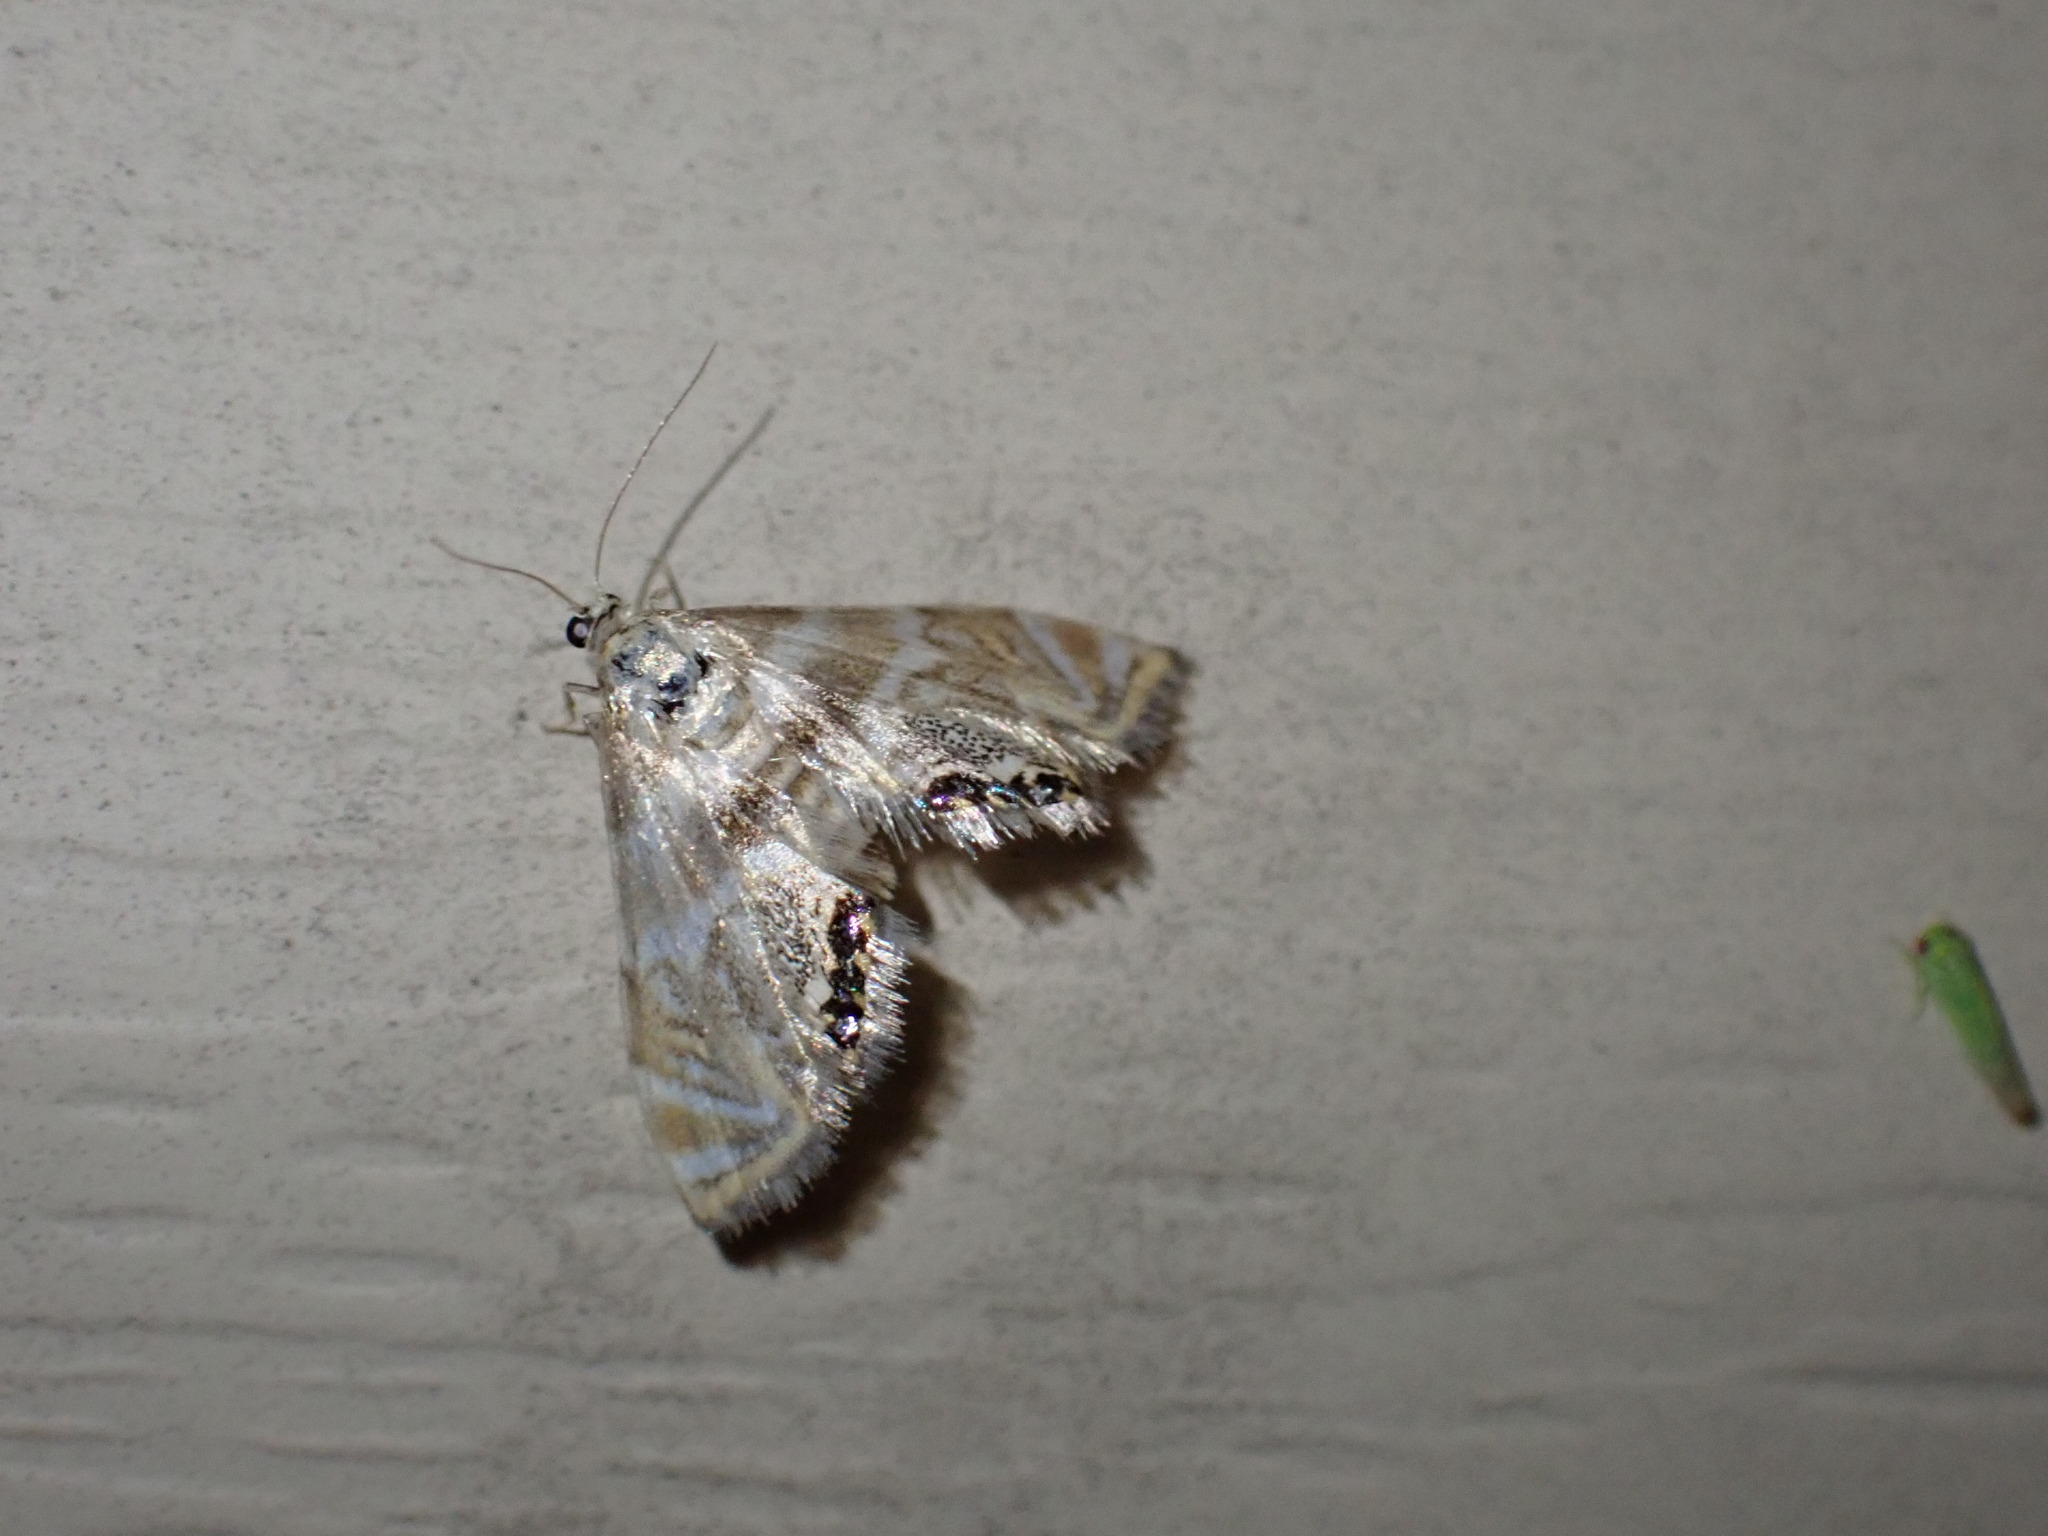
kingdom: Animalia
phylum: Arthropoda
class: Insecta
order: Lepidoptera
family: Crambidae
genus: Petrophila
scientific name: Petrophila canadensis
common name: Canadian petrophila
